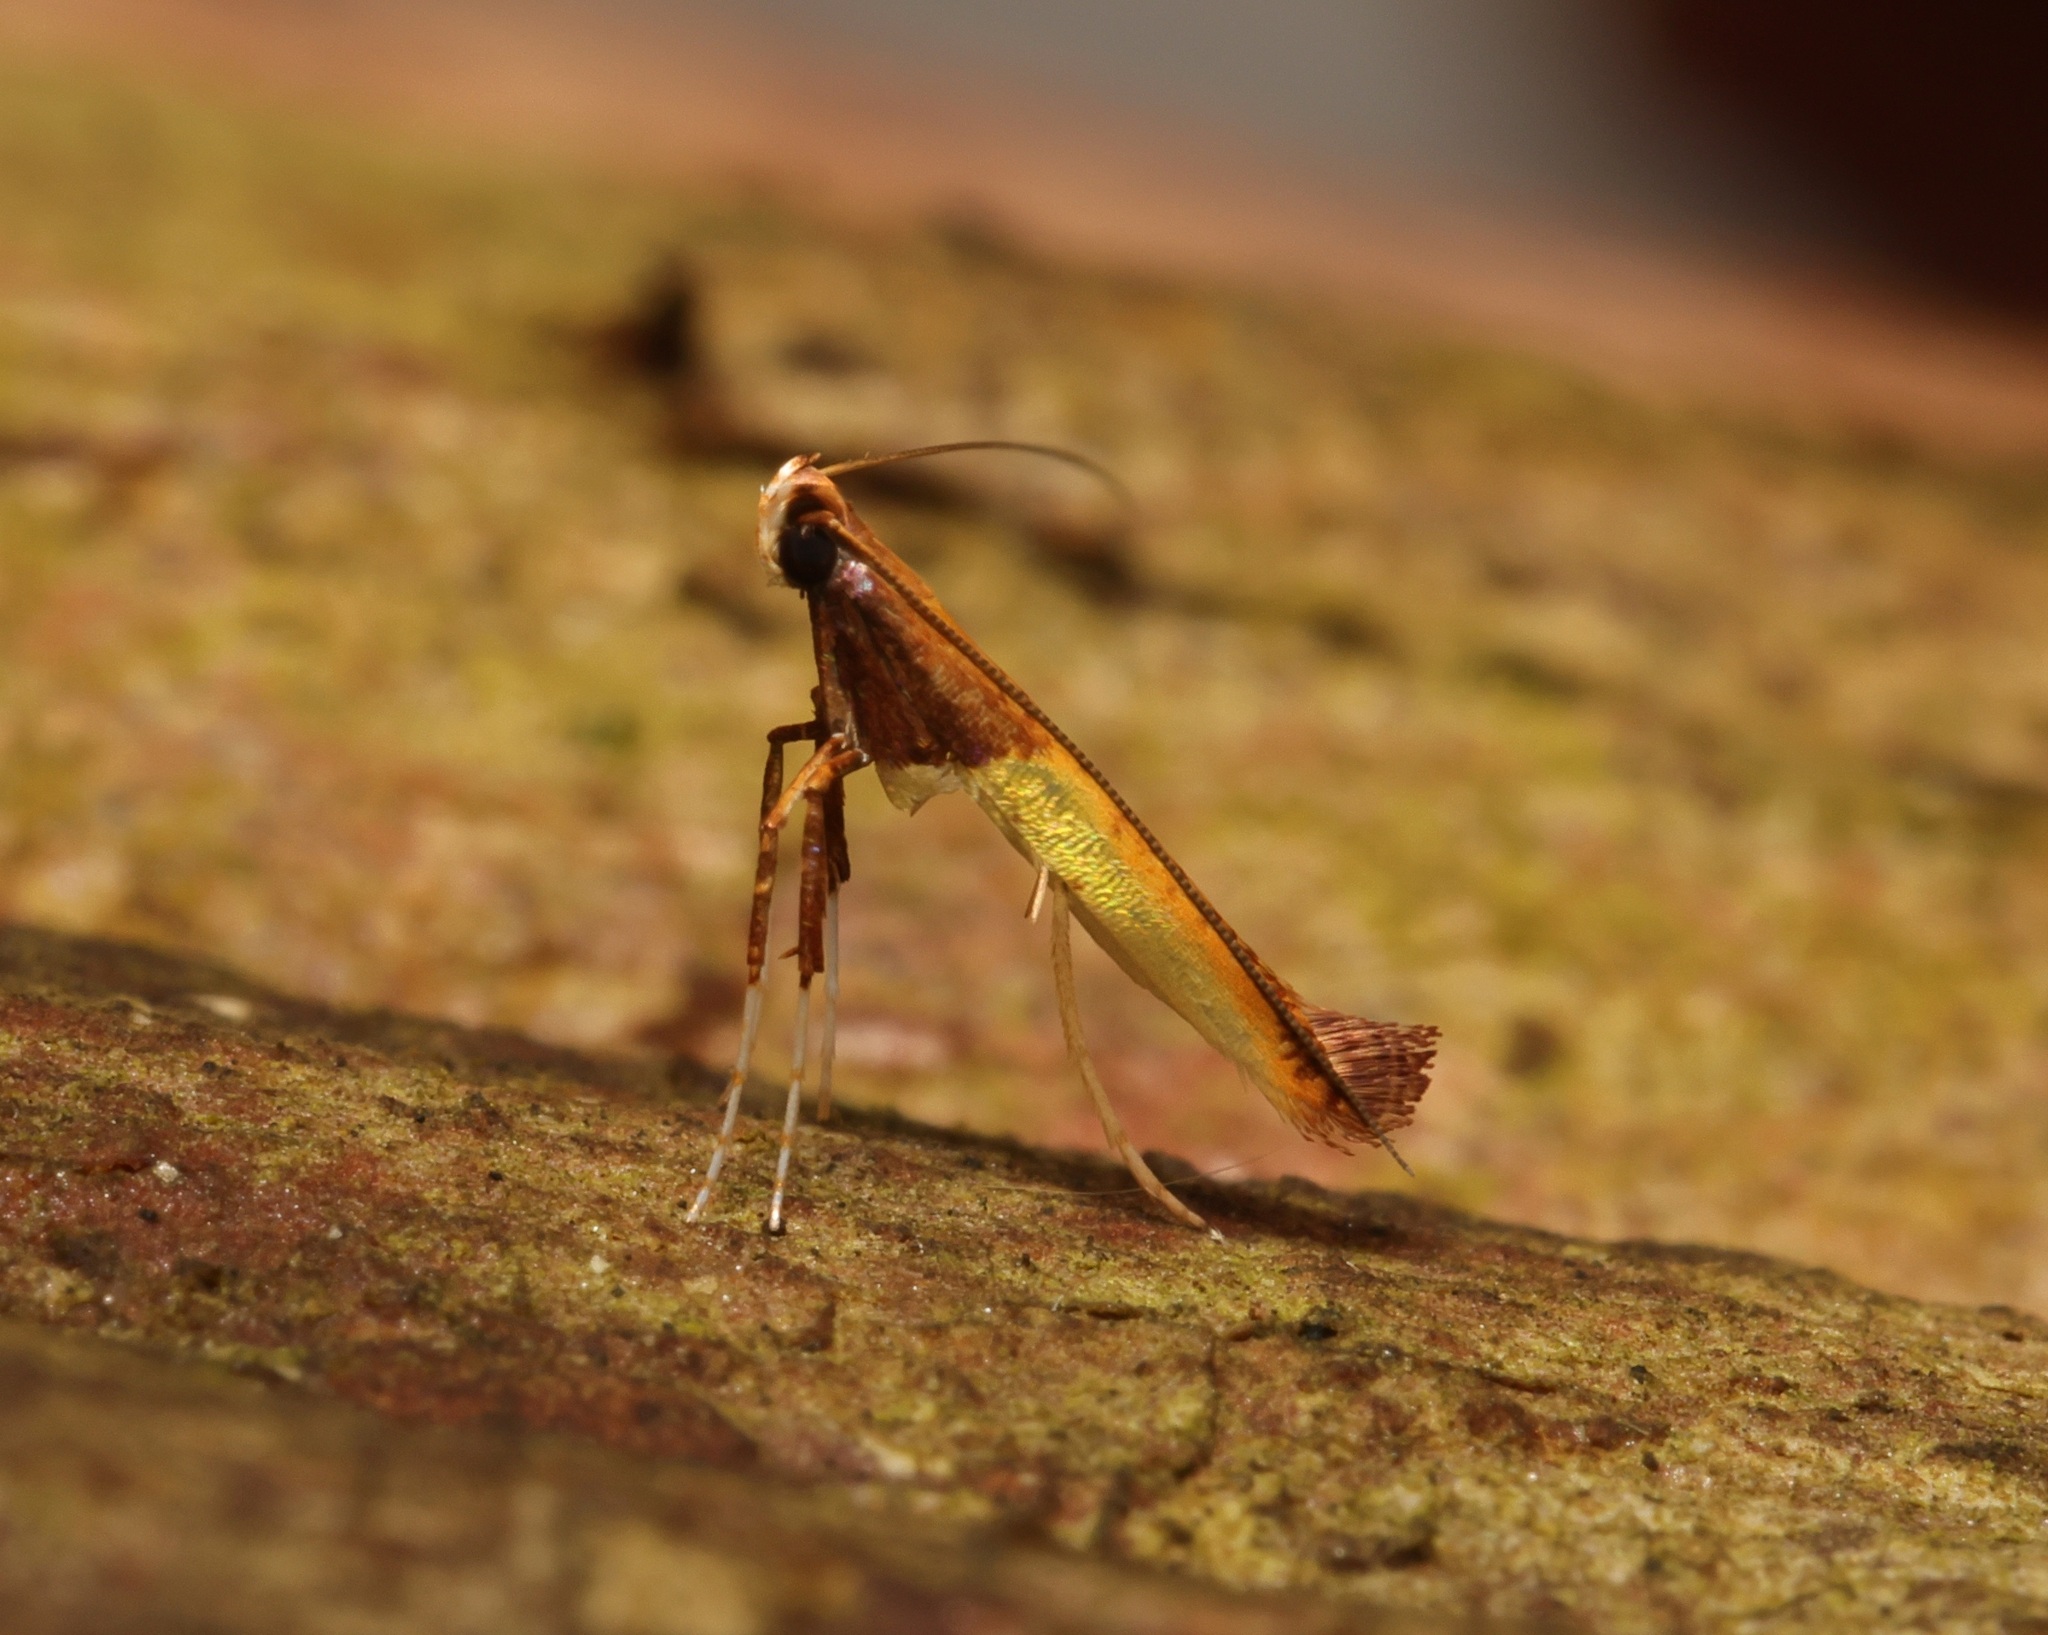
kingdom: Animalia
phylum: Arthropoda
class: Insecta
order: Lepidoptera
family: Gracillariidae
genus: Caloptilia
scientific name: Caloptilia recitata
